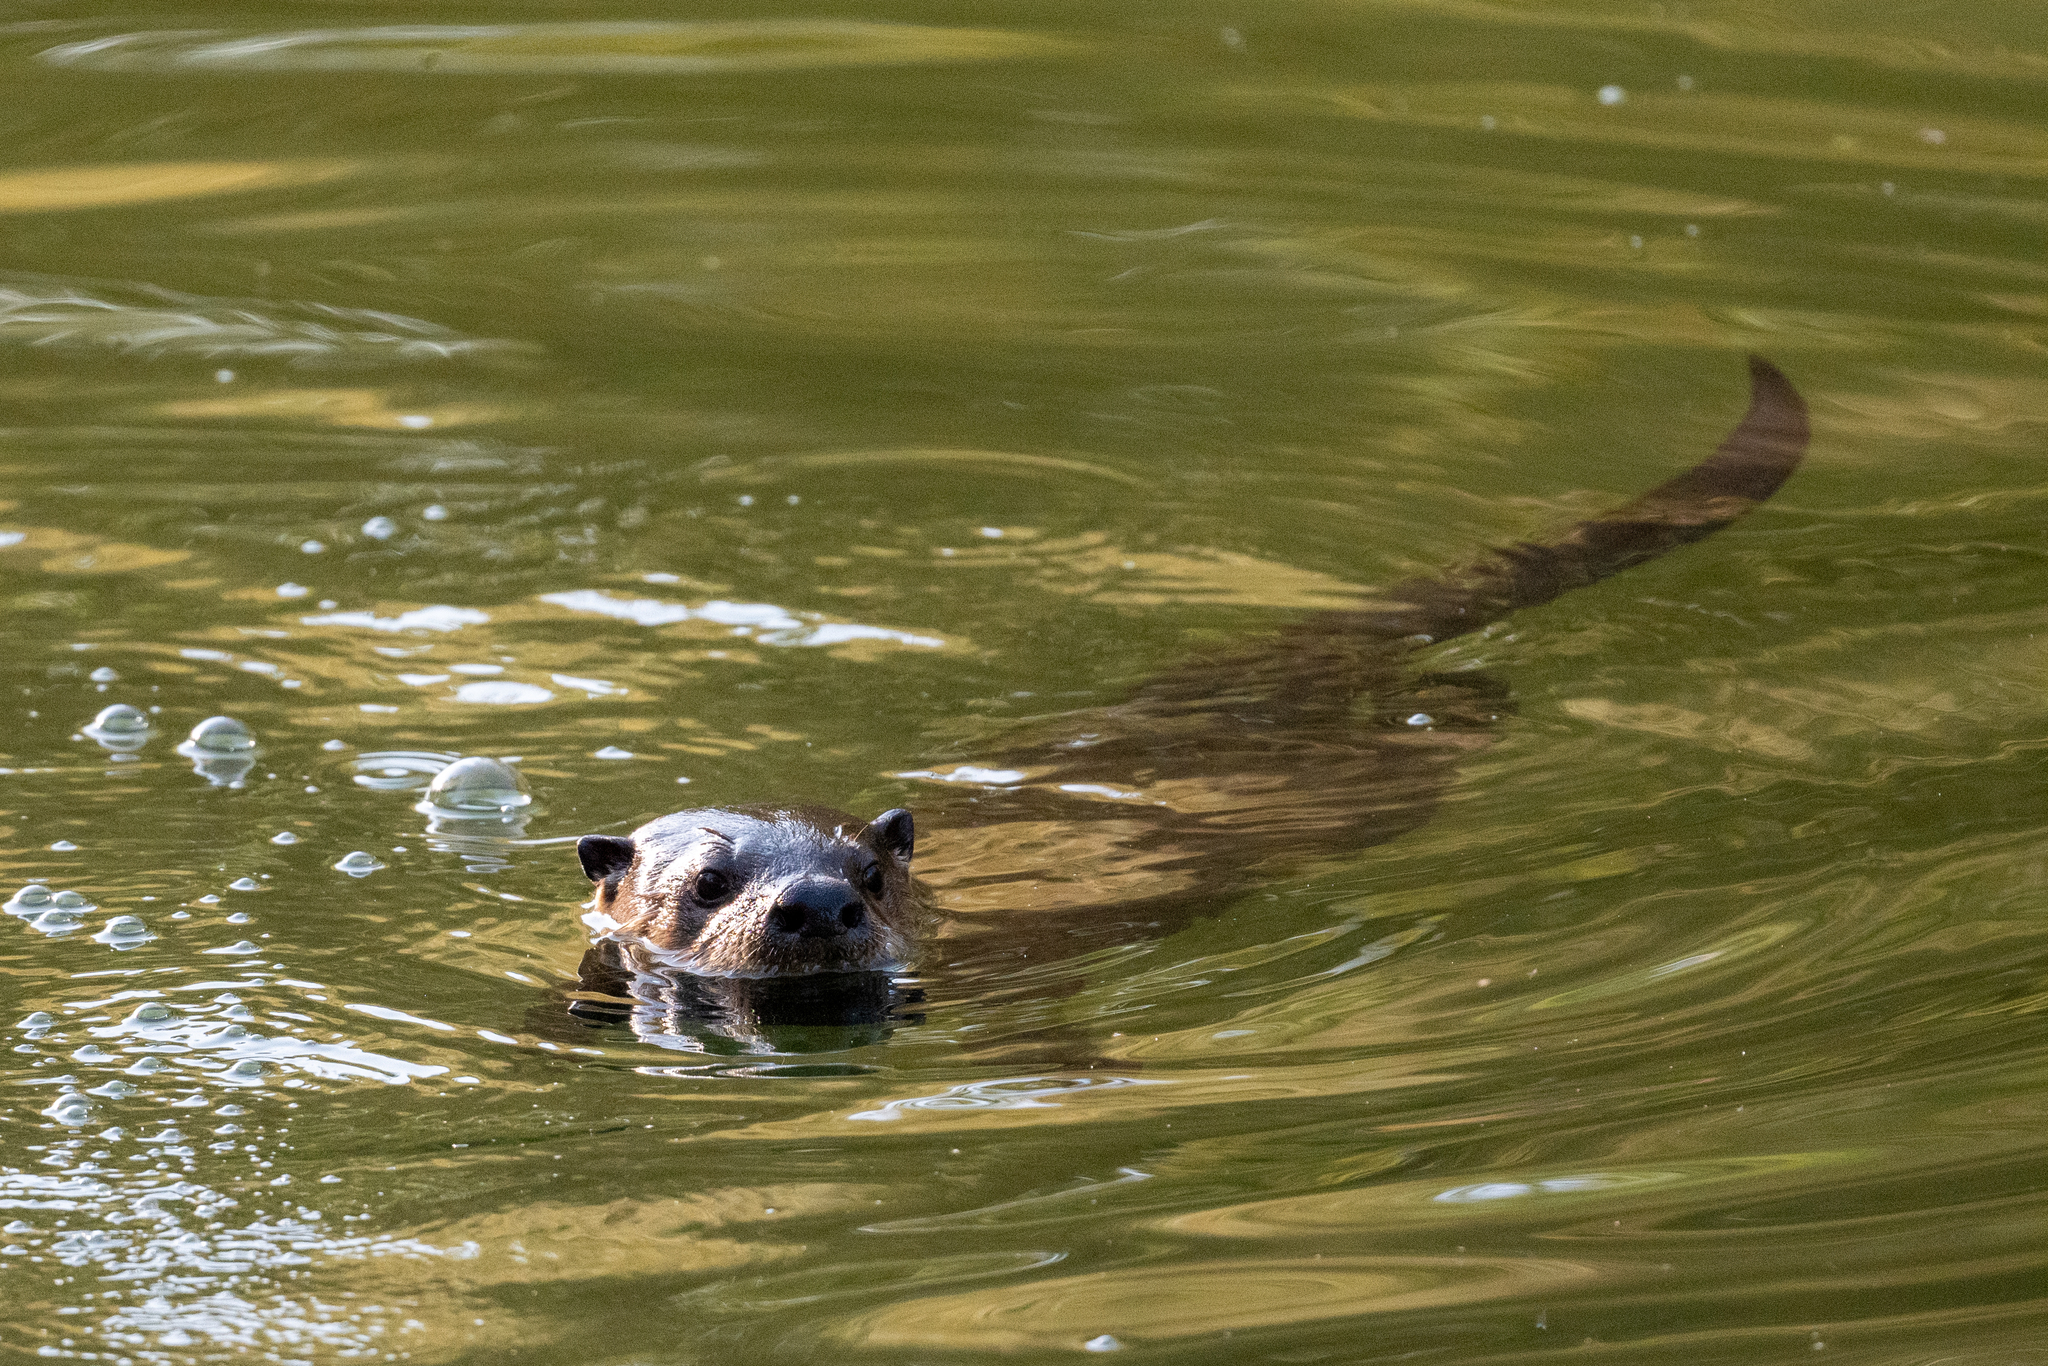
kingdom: Animalia
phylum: Chordata
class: Mammalia
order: Carnivora
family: Mustelidae
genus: Lontra
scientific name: Lontra canadensis
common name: North american river otter
